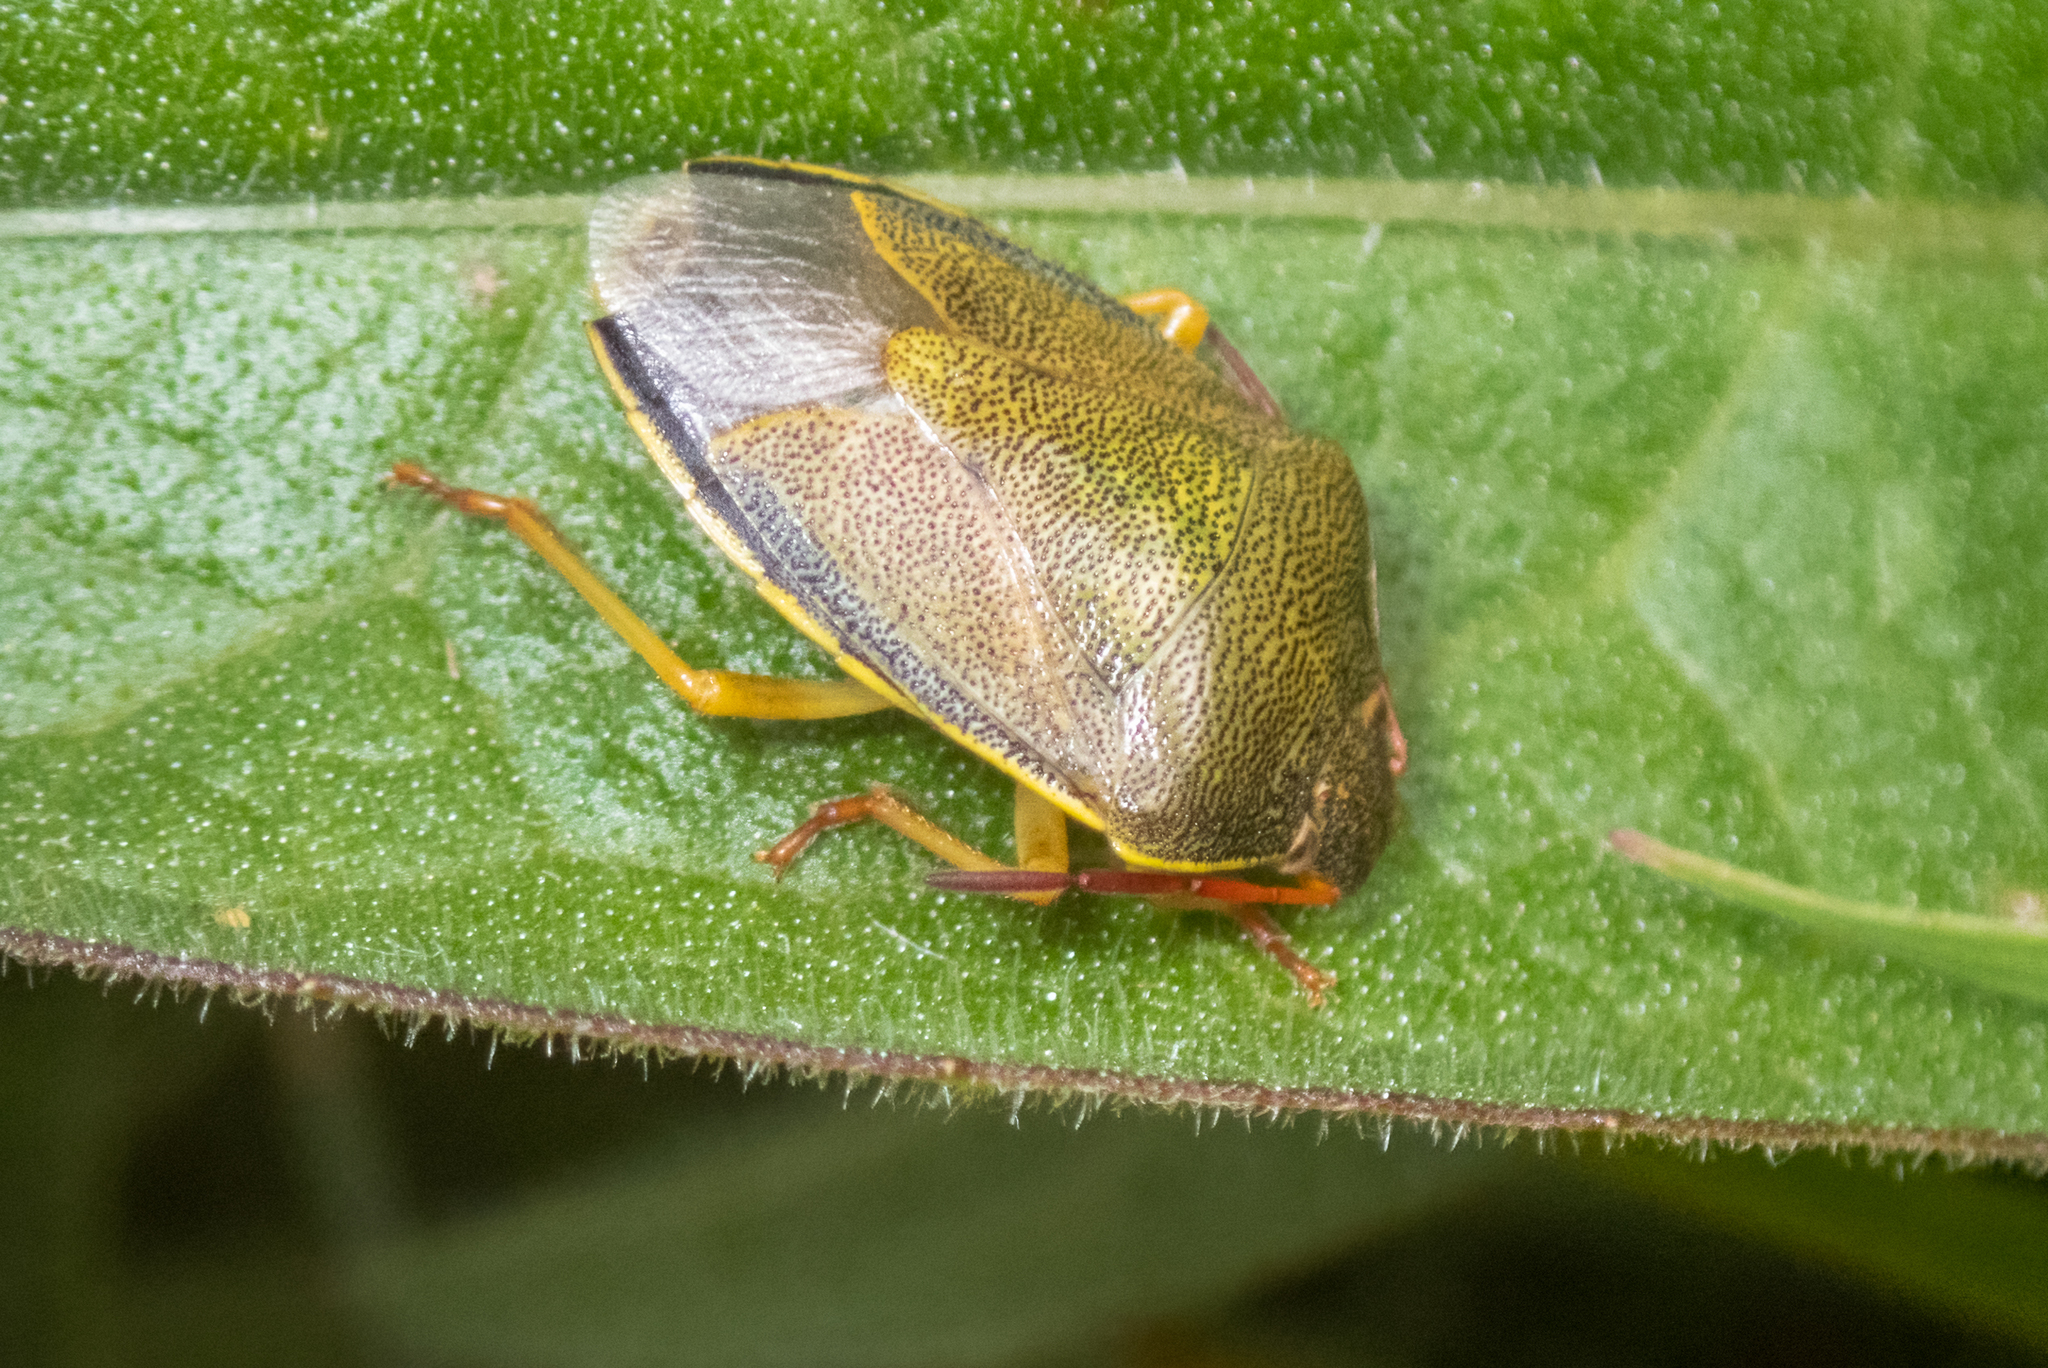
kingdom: Animalia
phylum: Arthropoda
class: Insecta
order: Hemiptera
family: Pentatomidae
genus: Piezodorus
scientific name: Piezodorus lituratus
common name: Stink bug
